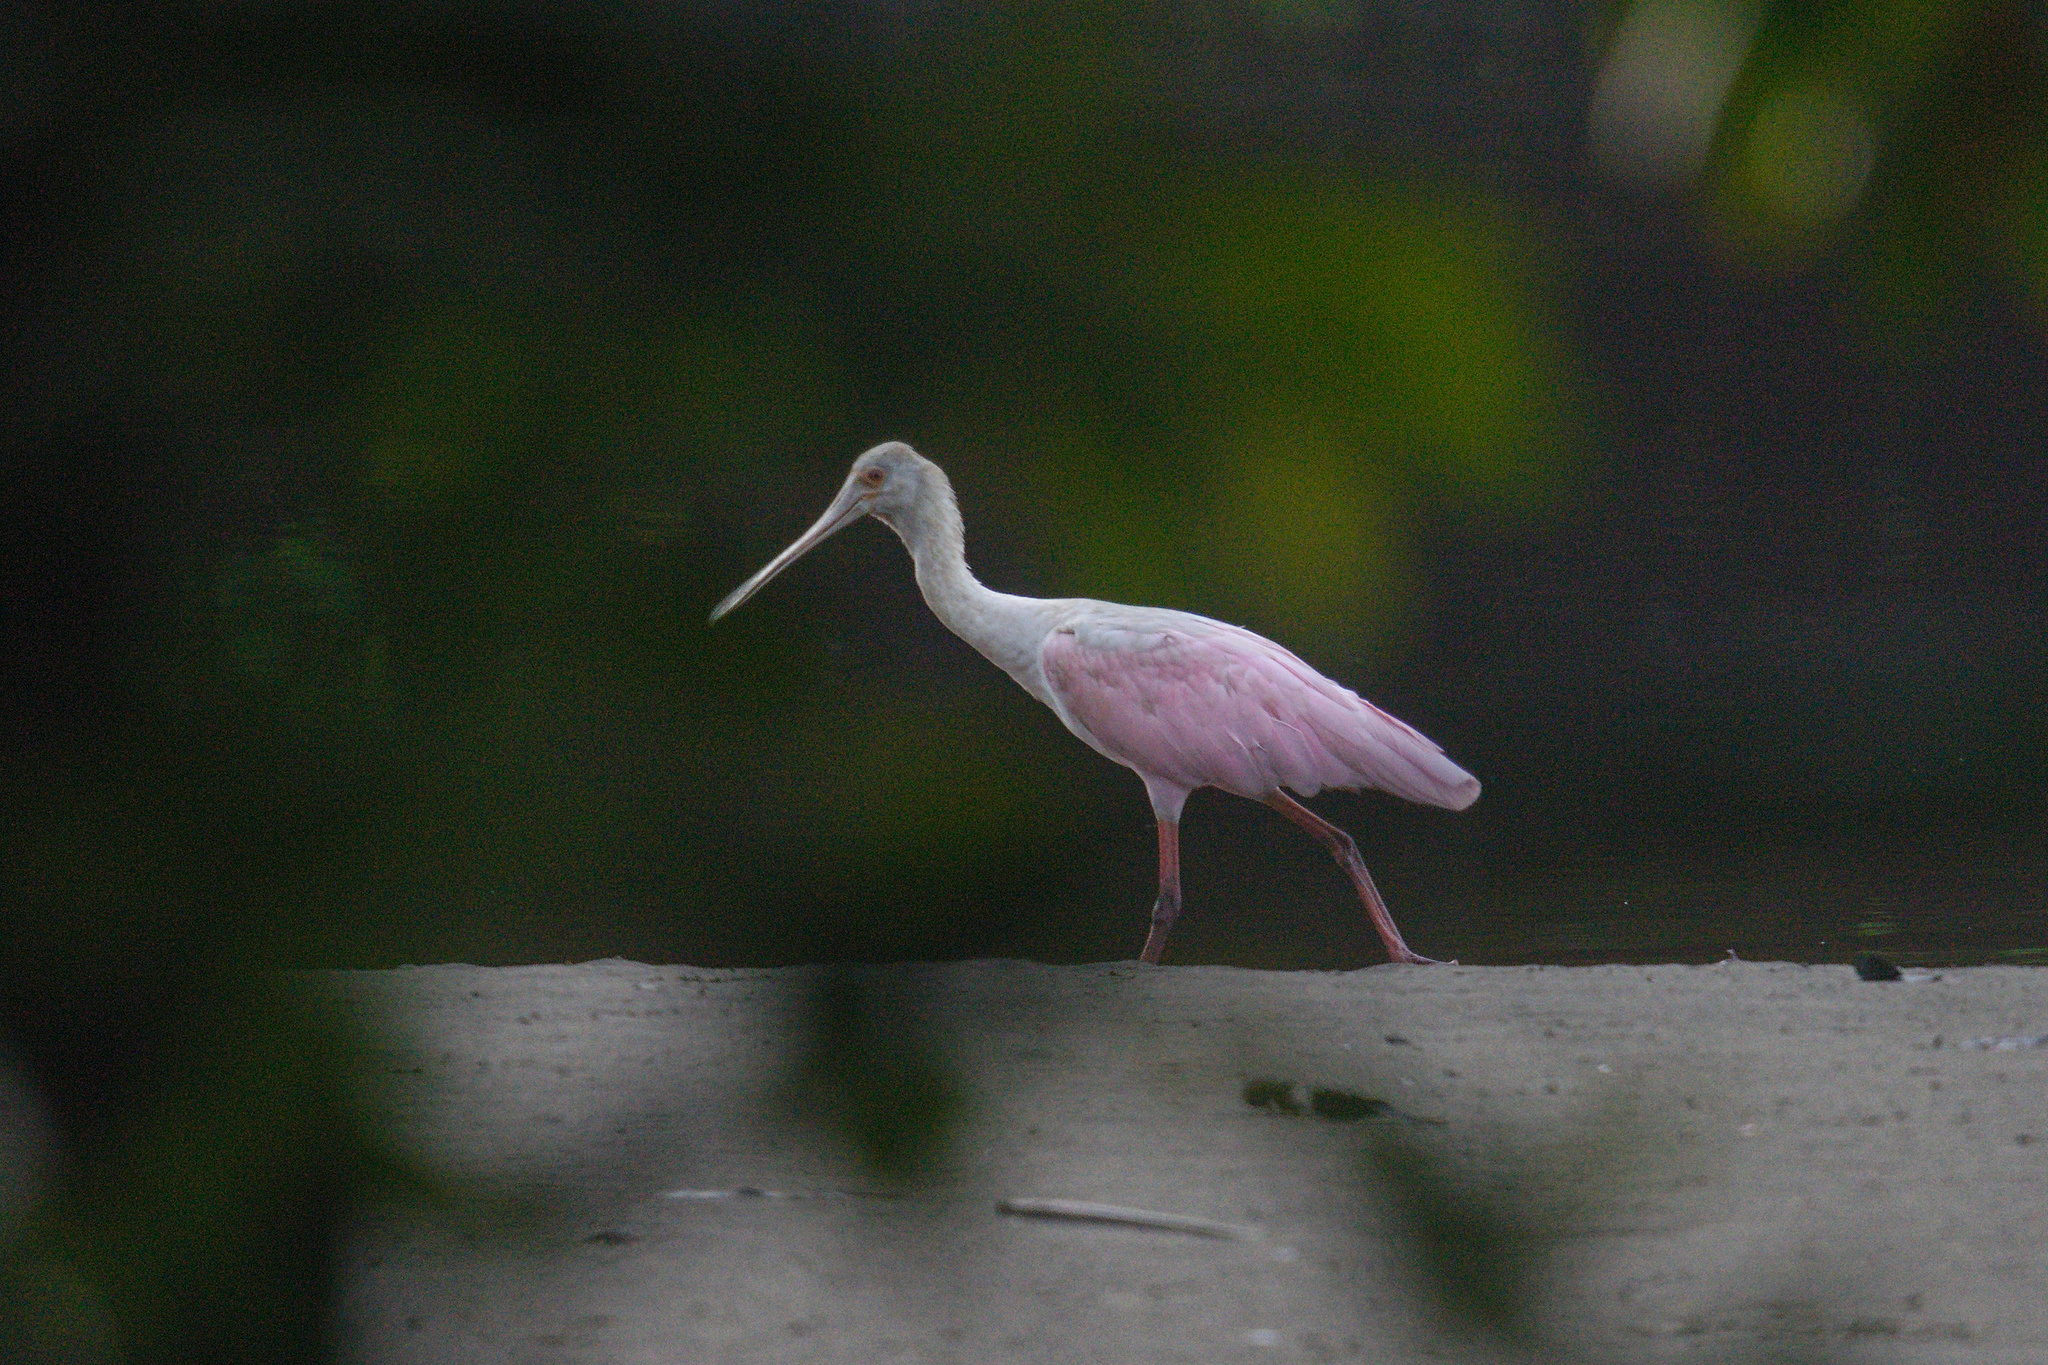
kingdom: Animalia
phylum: Chordata
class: Aves
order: Pelecaniformes
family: Threskiornithidae
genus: Platalea
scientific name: Platalea ajaja
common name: Roseate spoonbill
